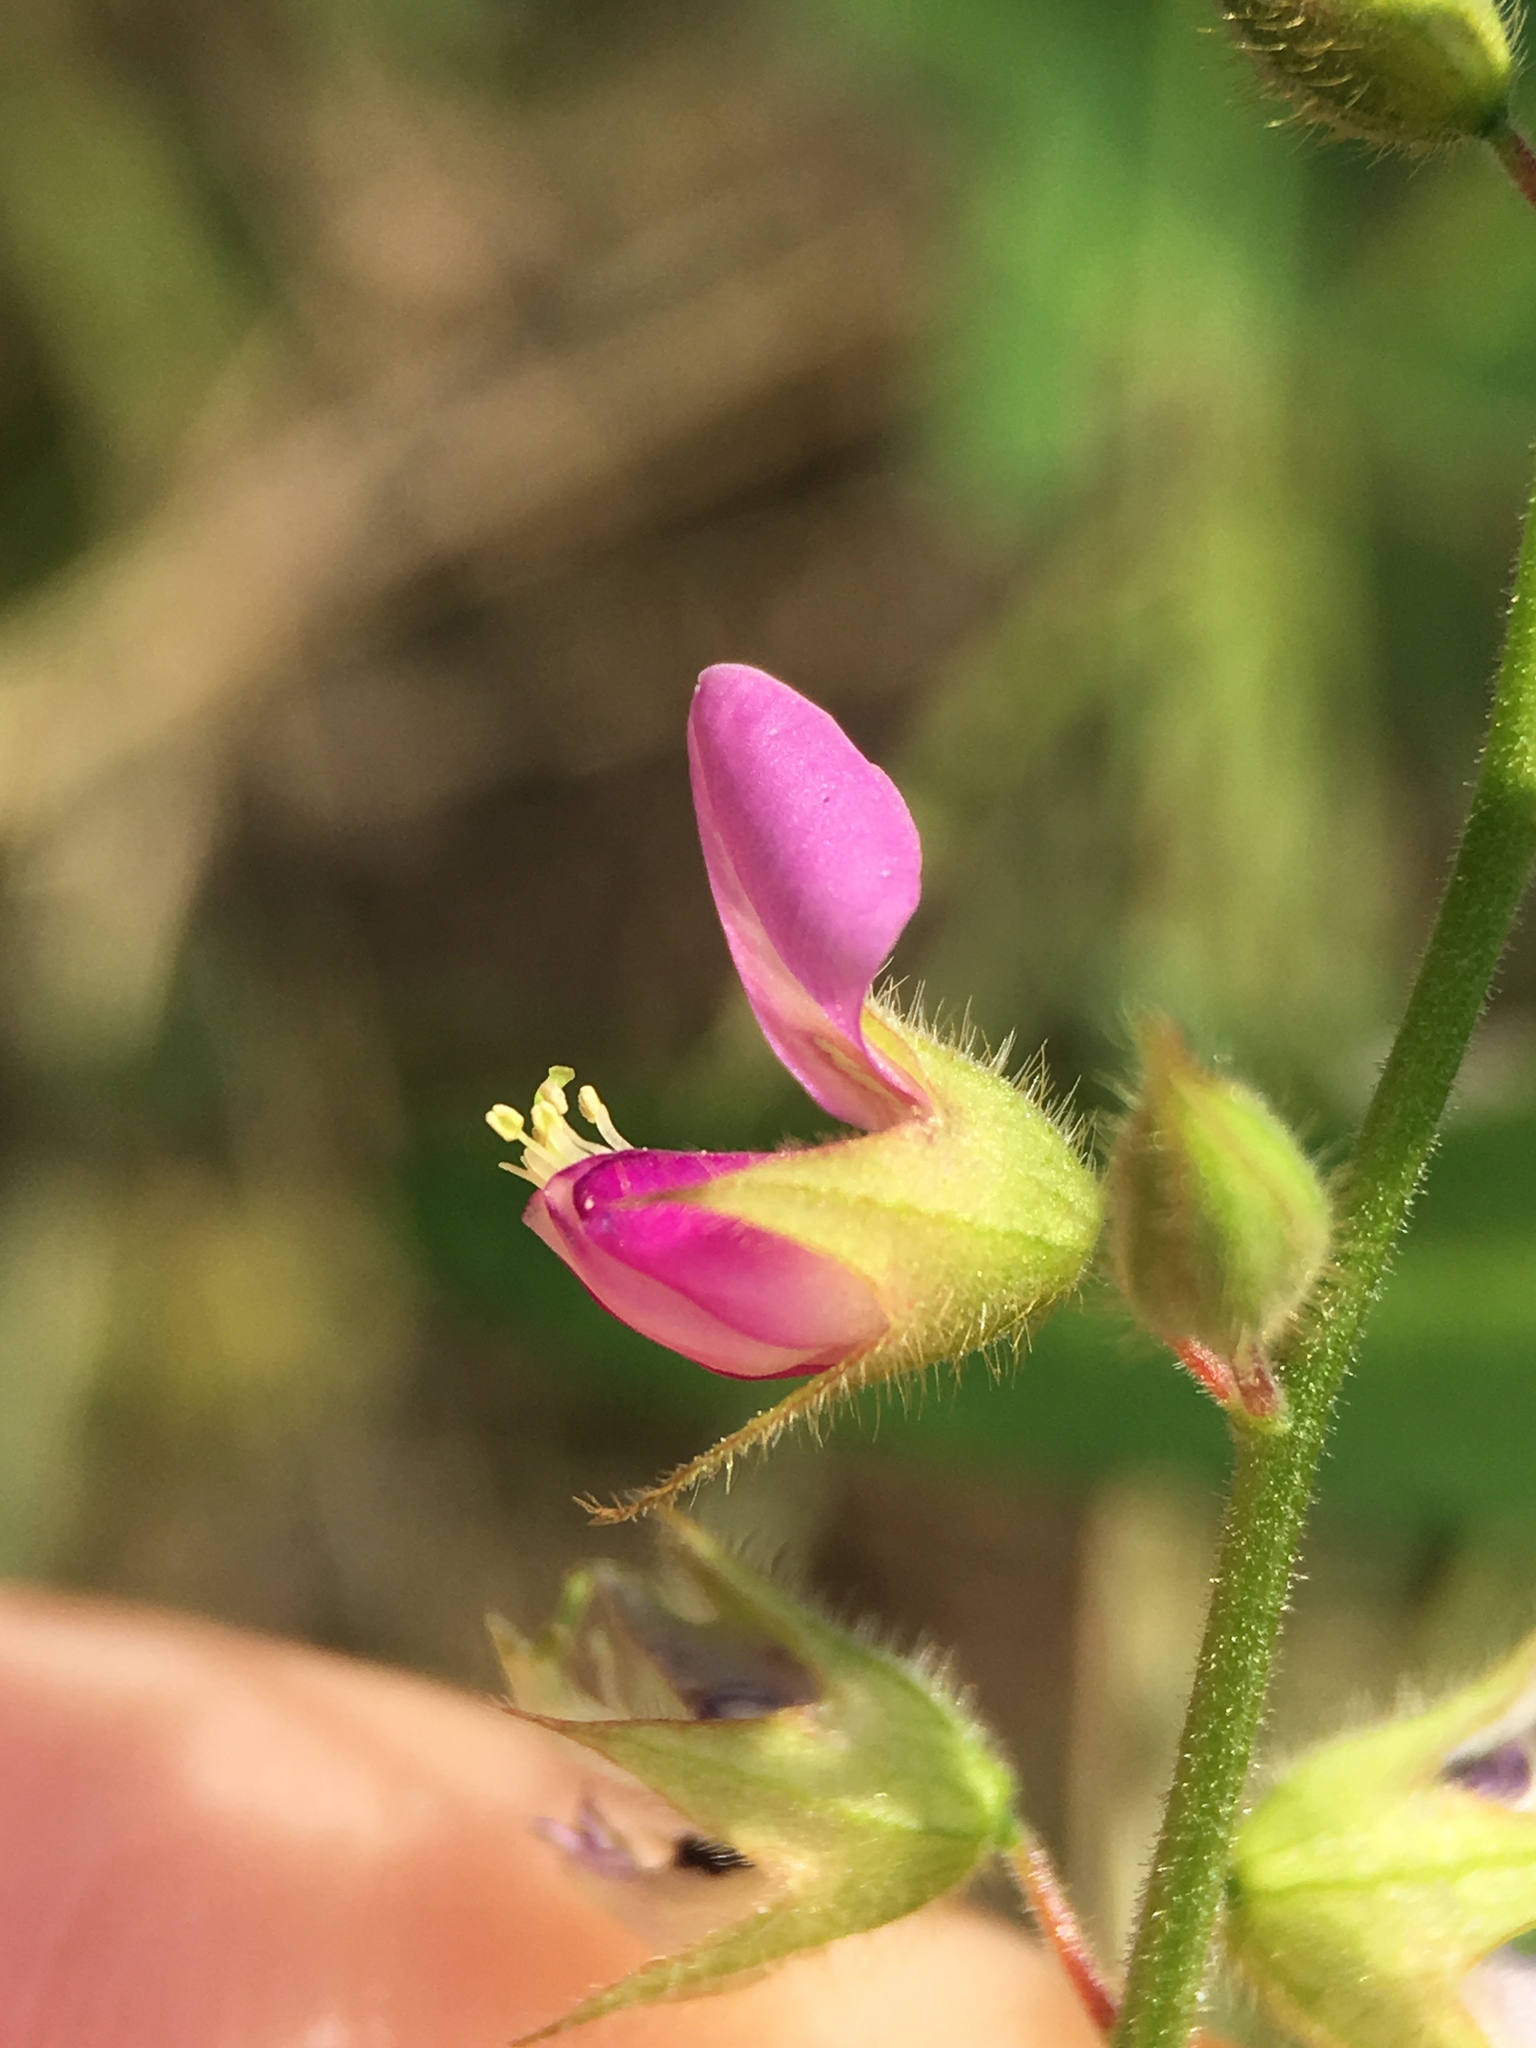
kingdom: Plantae
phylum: Tracheophyta
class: Magnoliopsida
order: Fabales
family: Fabaceae
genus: Christia
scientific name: Christia vespertilionis
